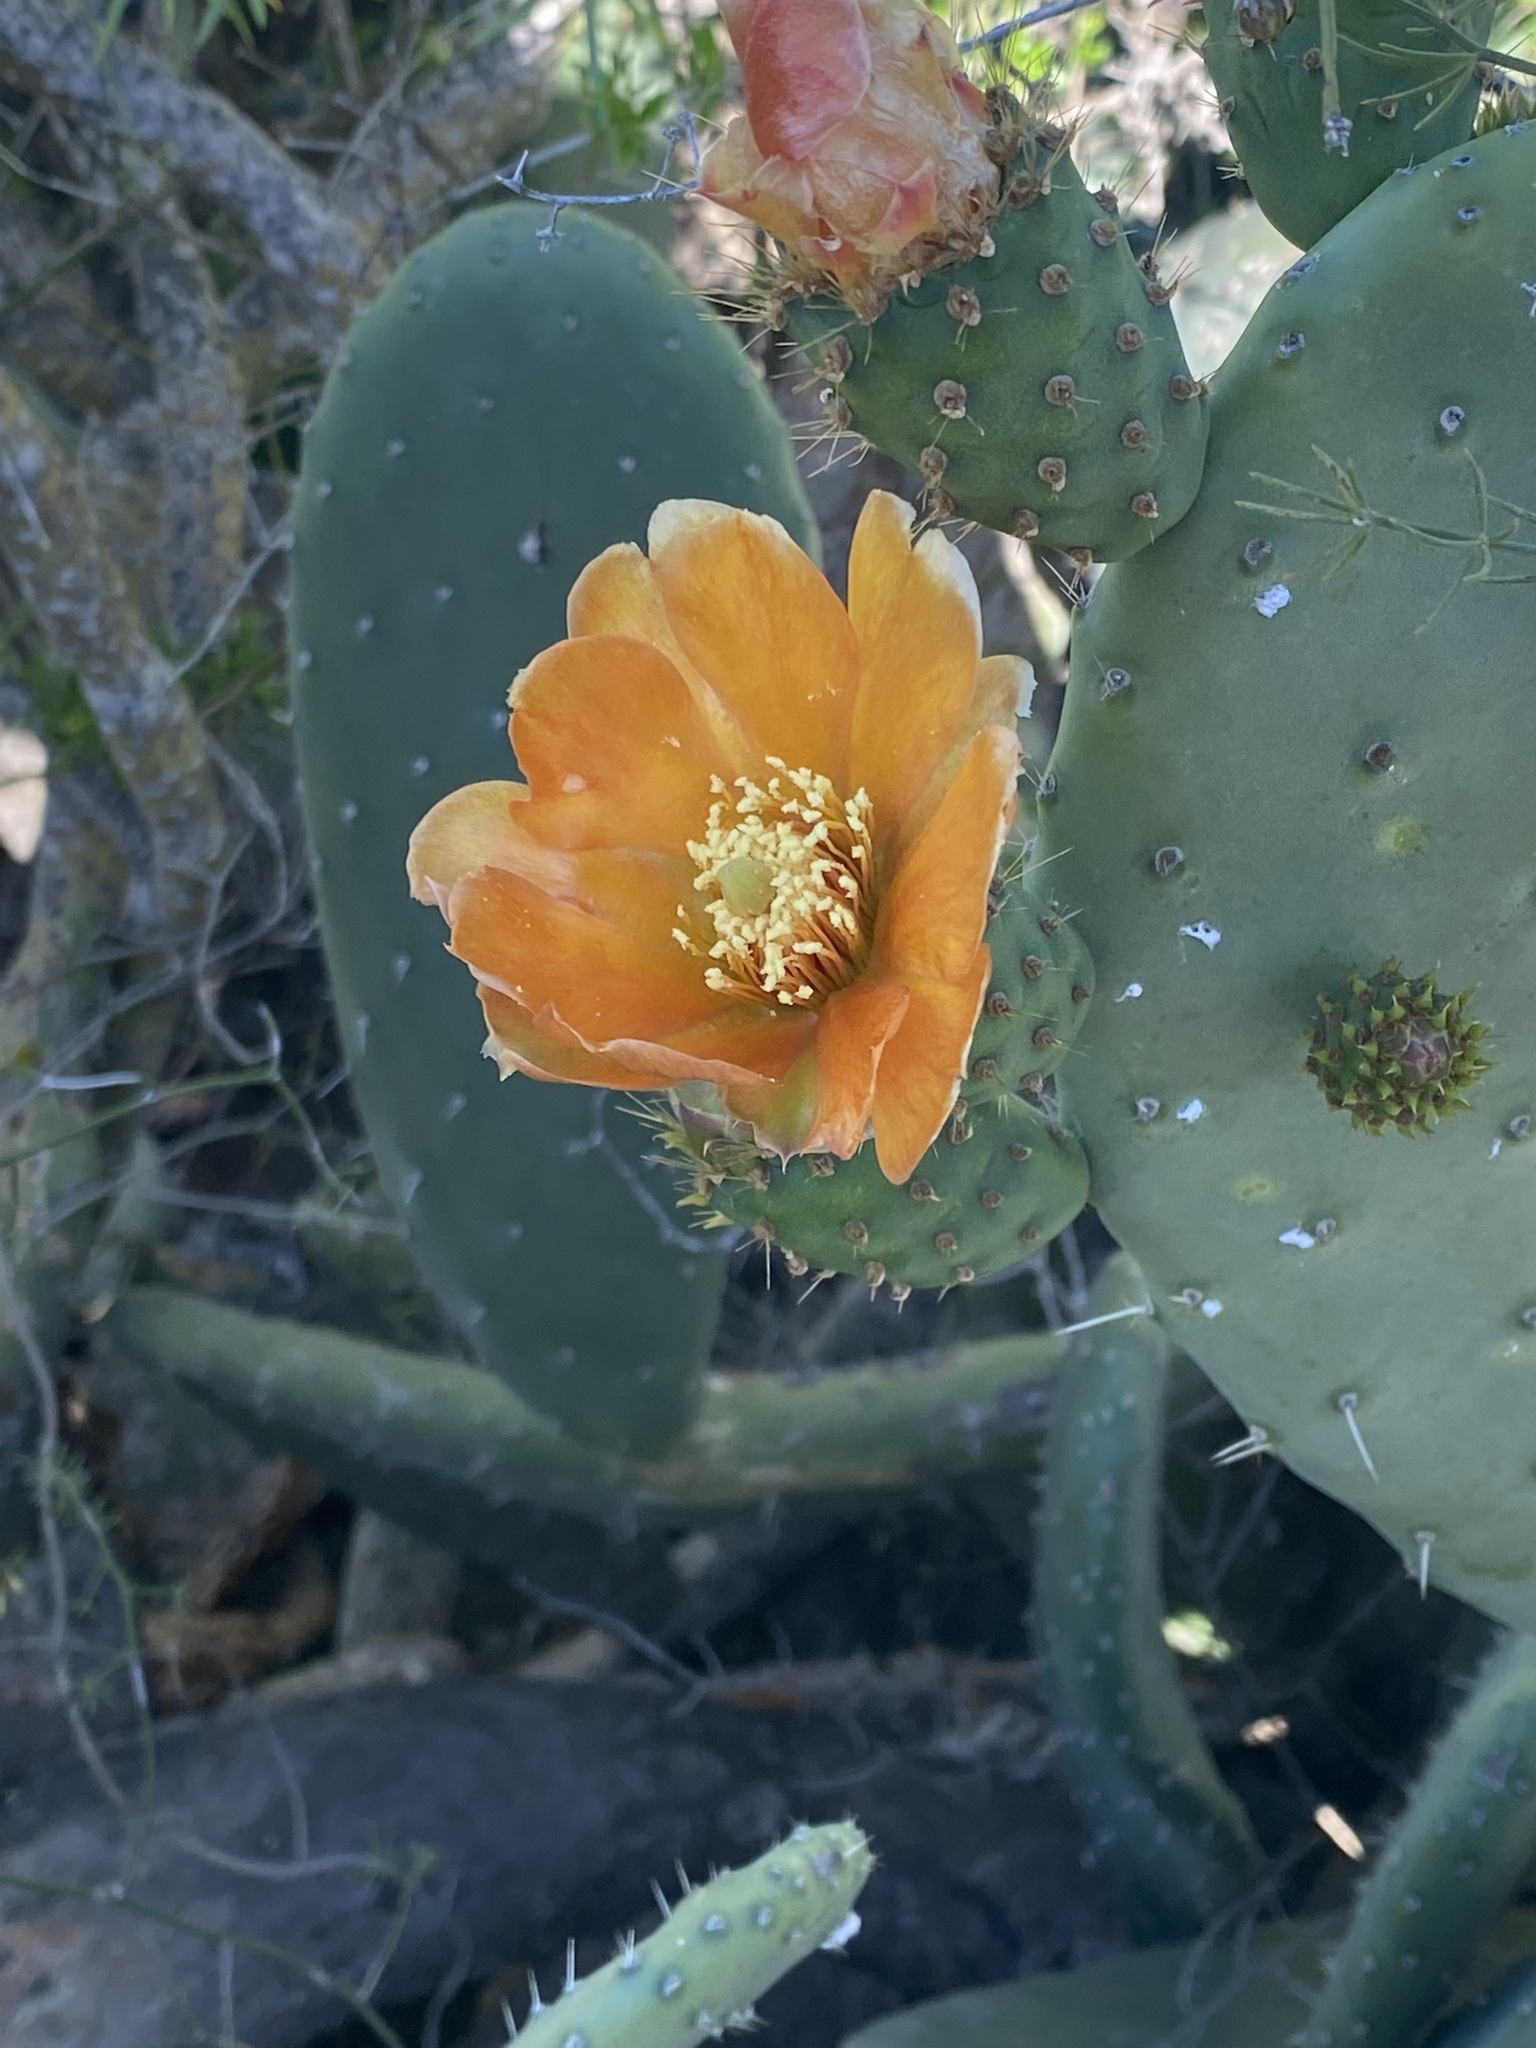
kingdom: Plantae
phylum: Tracheophyta
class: Magnoliopsida
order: Caryophyllales
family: Cactaceae
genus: Opuntia
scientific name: Opuntia ficus-indica
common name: Barbary fig
